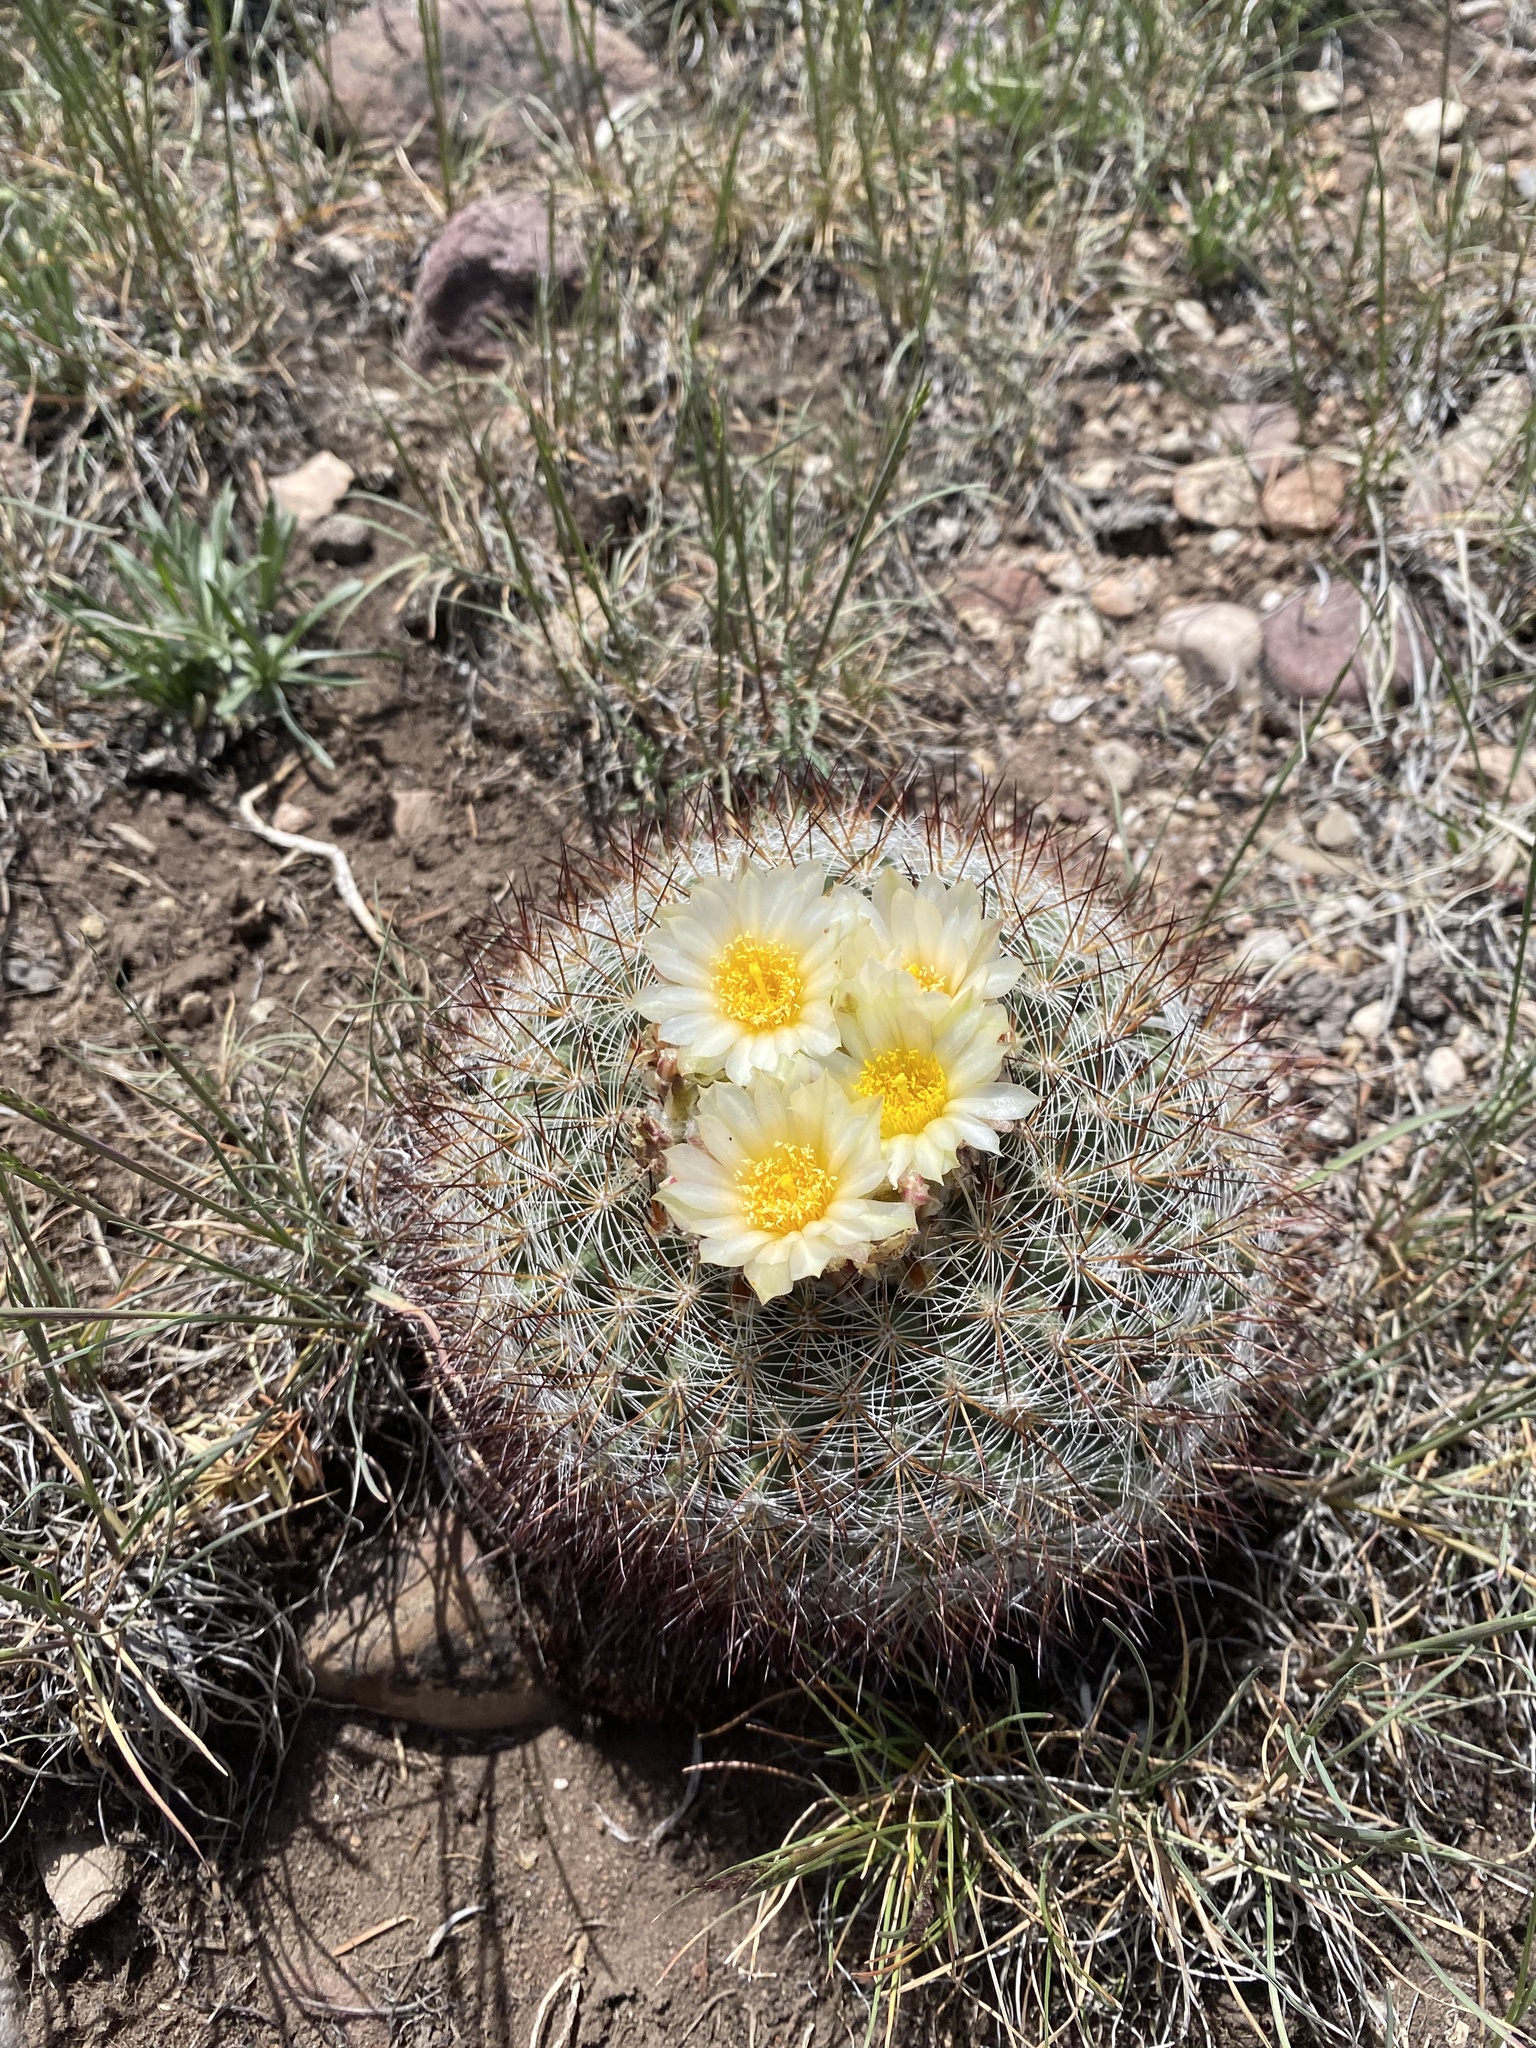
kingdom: Plantae
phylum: Tracheophyta
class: Magnoliopsida
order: Caryophyllales
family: Cactaceae
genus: Pediocactus
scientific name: Pediocactus simpsonii
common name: Simpson's hedgehog cactus
